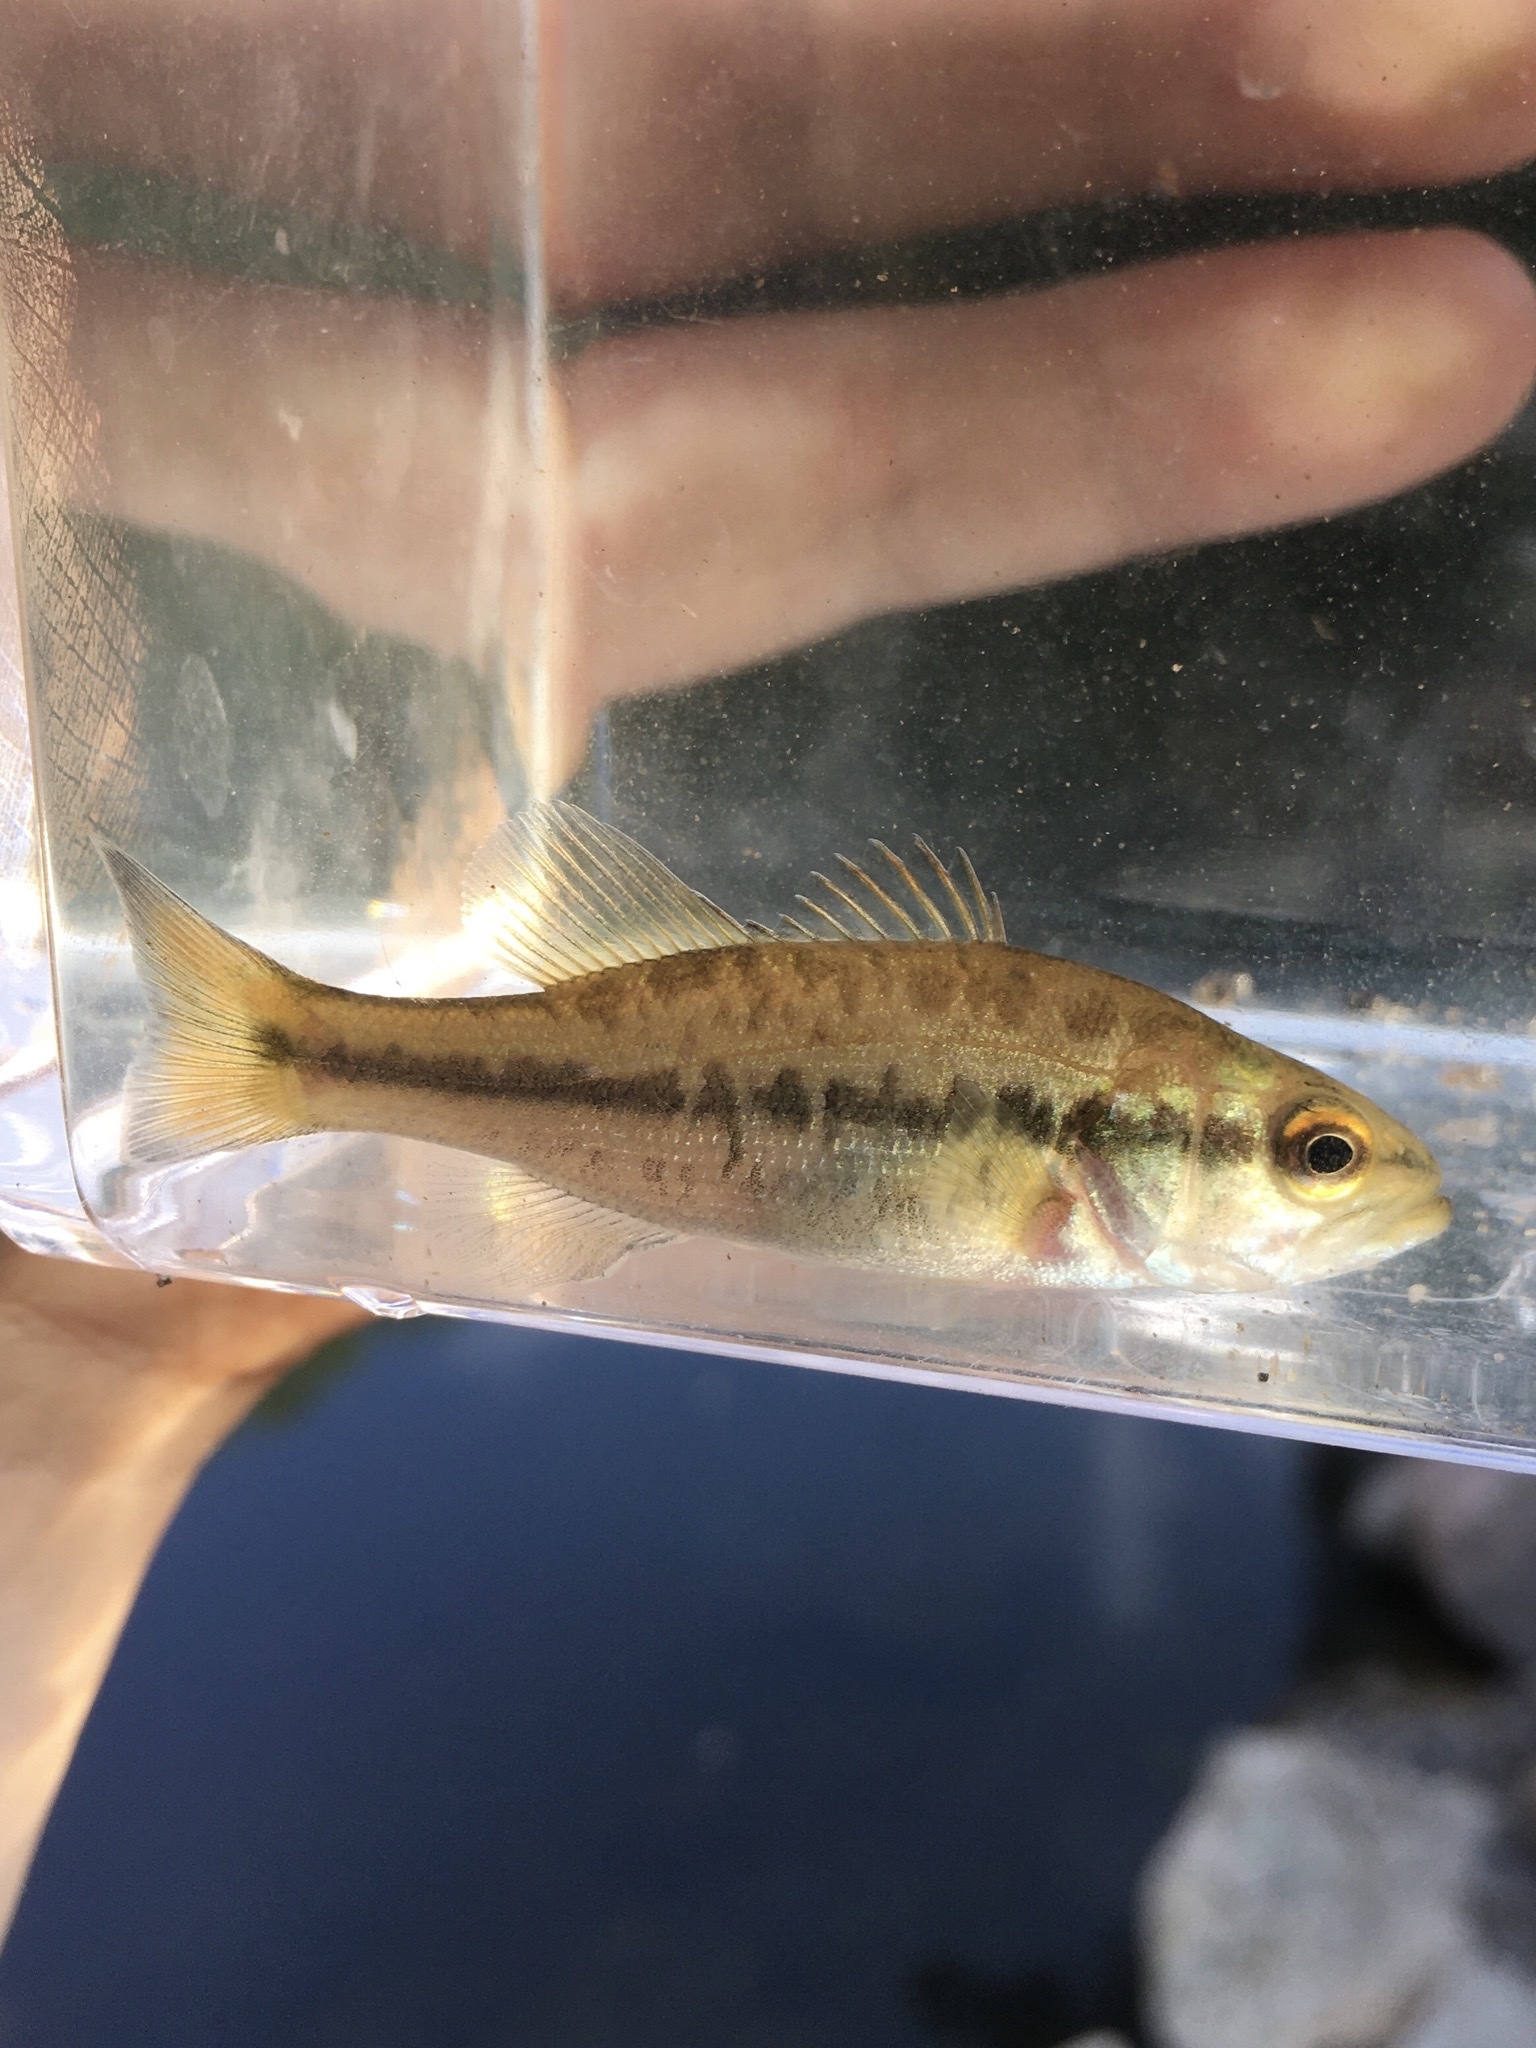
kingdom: Animalia
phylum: Chordata
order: Perciformes
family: Centrarchidae
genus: Micropterus
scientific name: Micropterus
